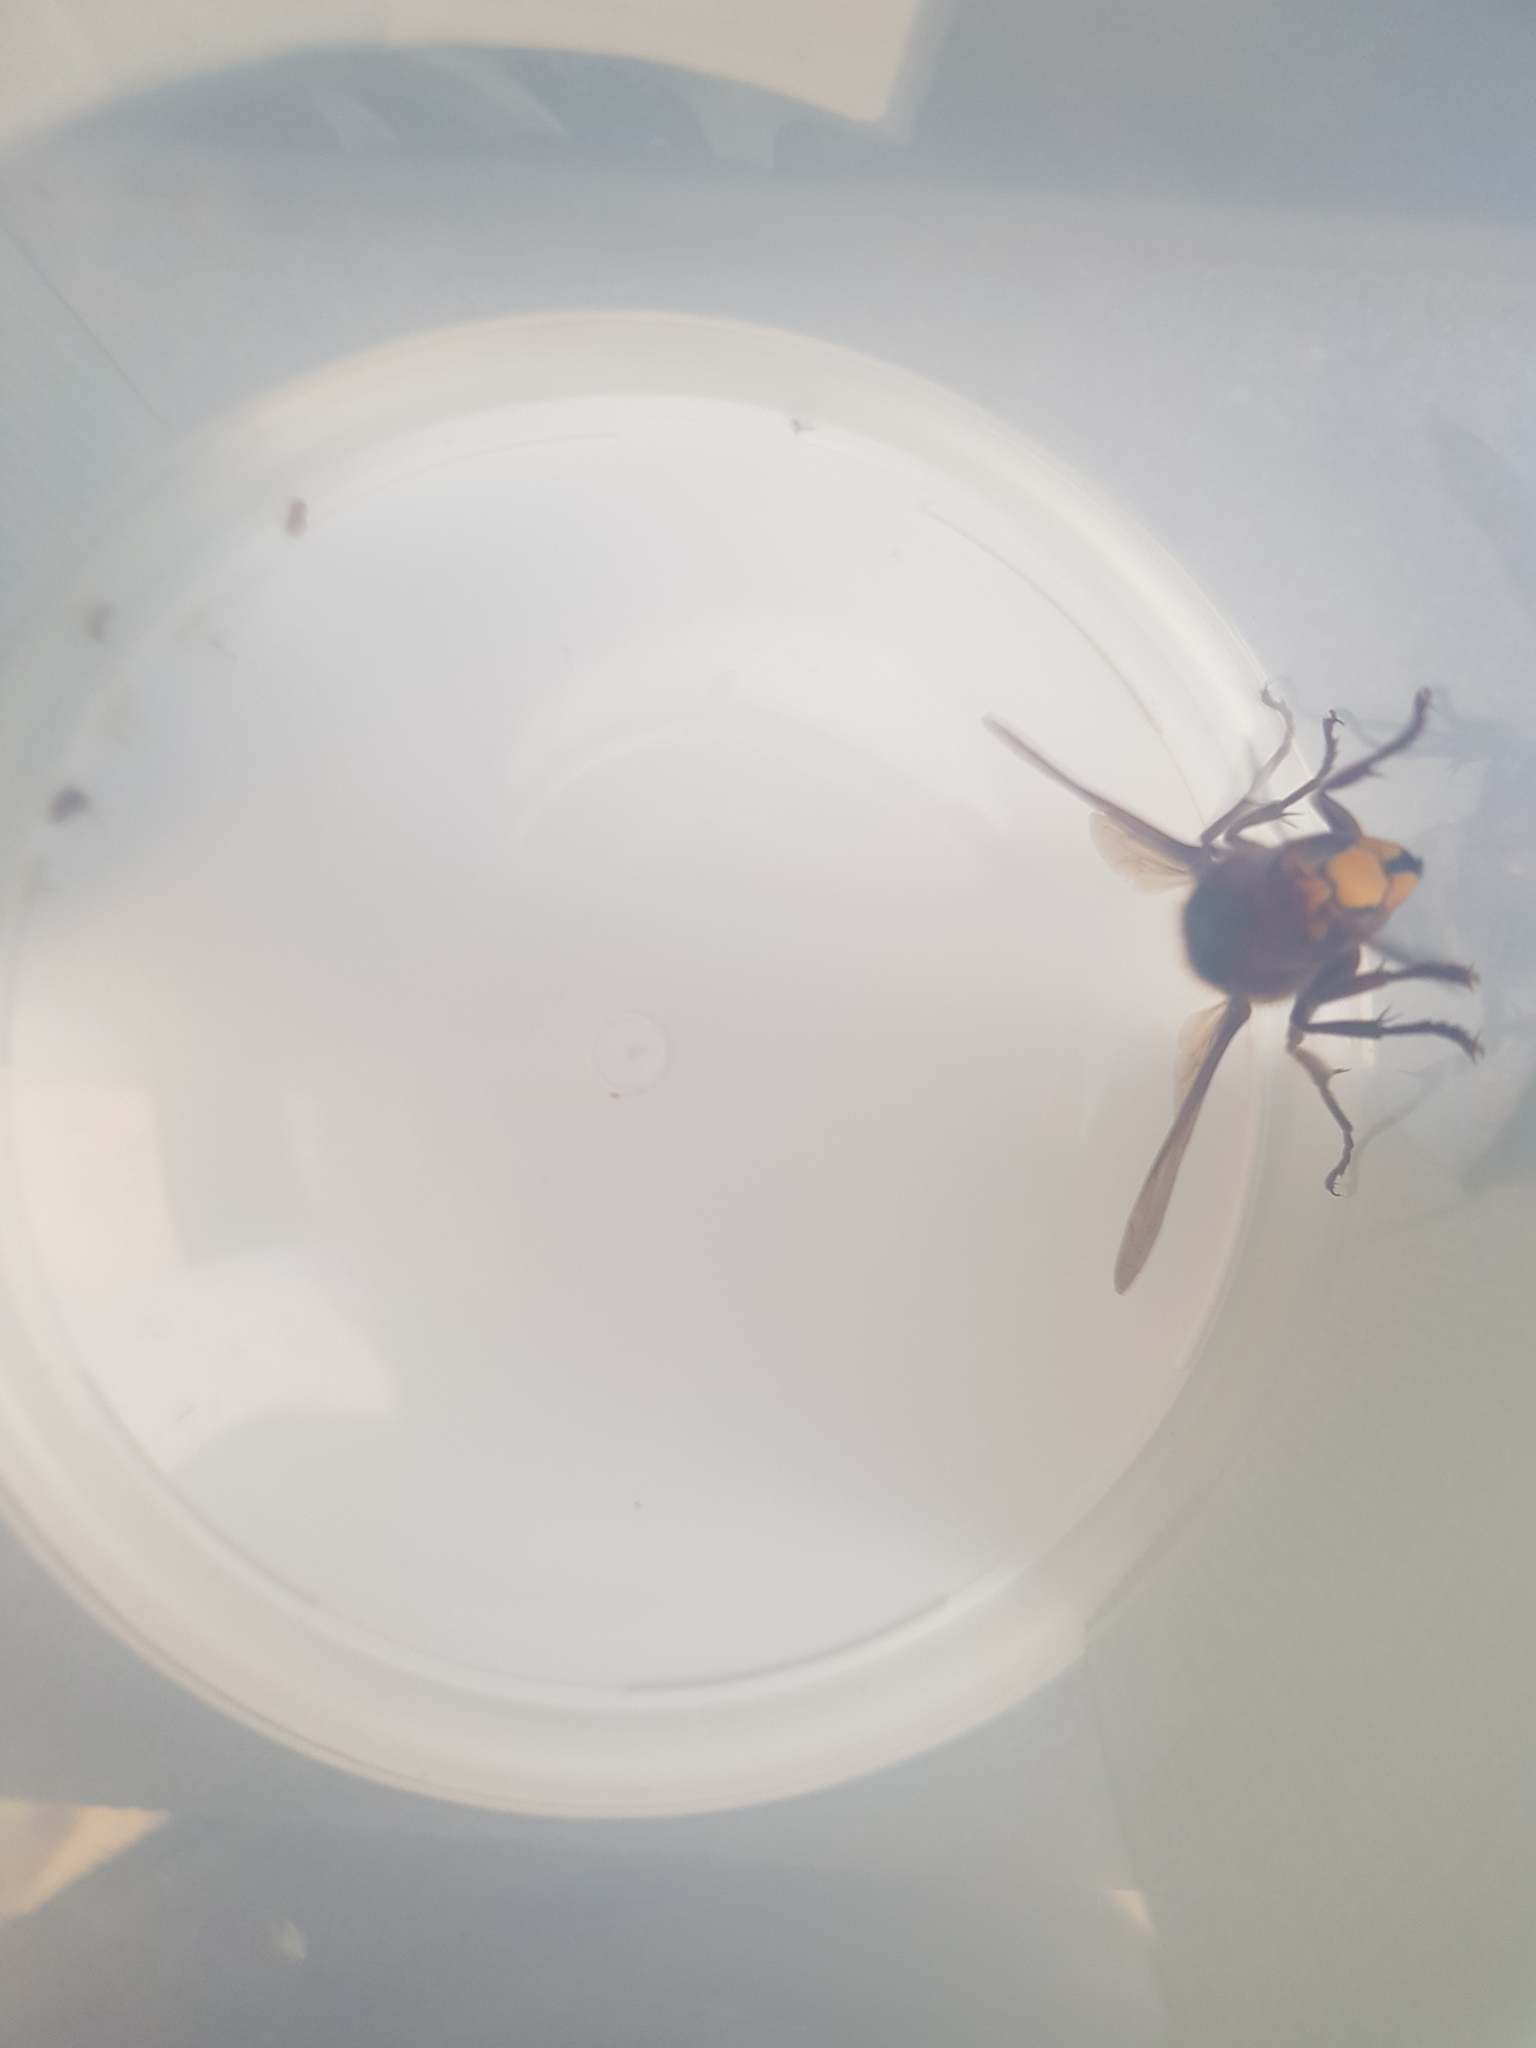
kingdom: Animalia
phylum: Arthropoda
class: Insecta
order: Hymenoptera
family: Vespidae
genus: Vespa
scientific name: Vespa crabro
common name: Hornet
